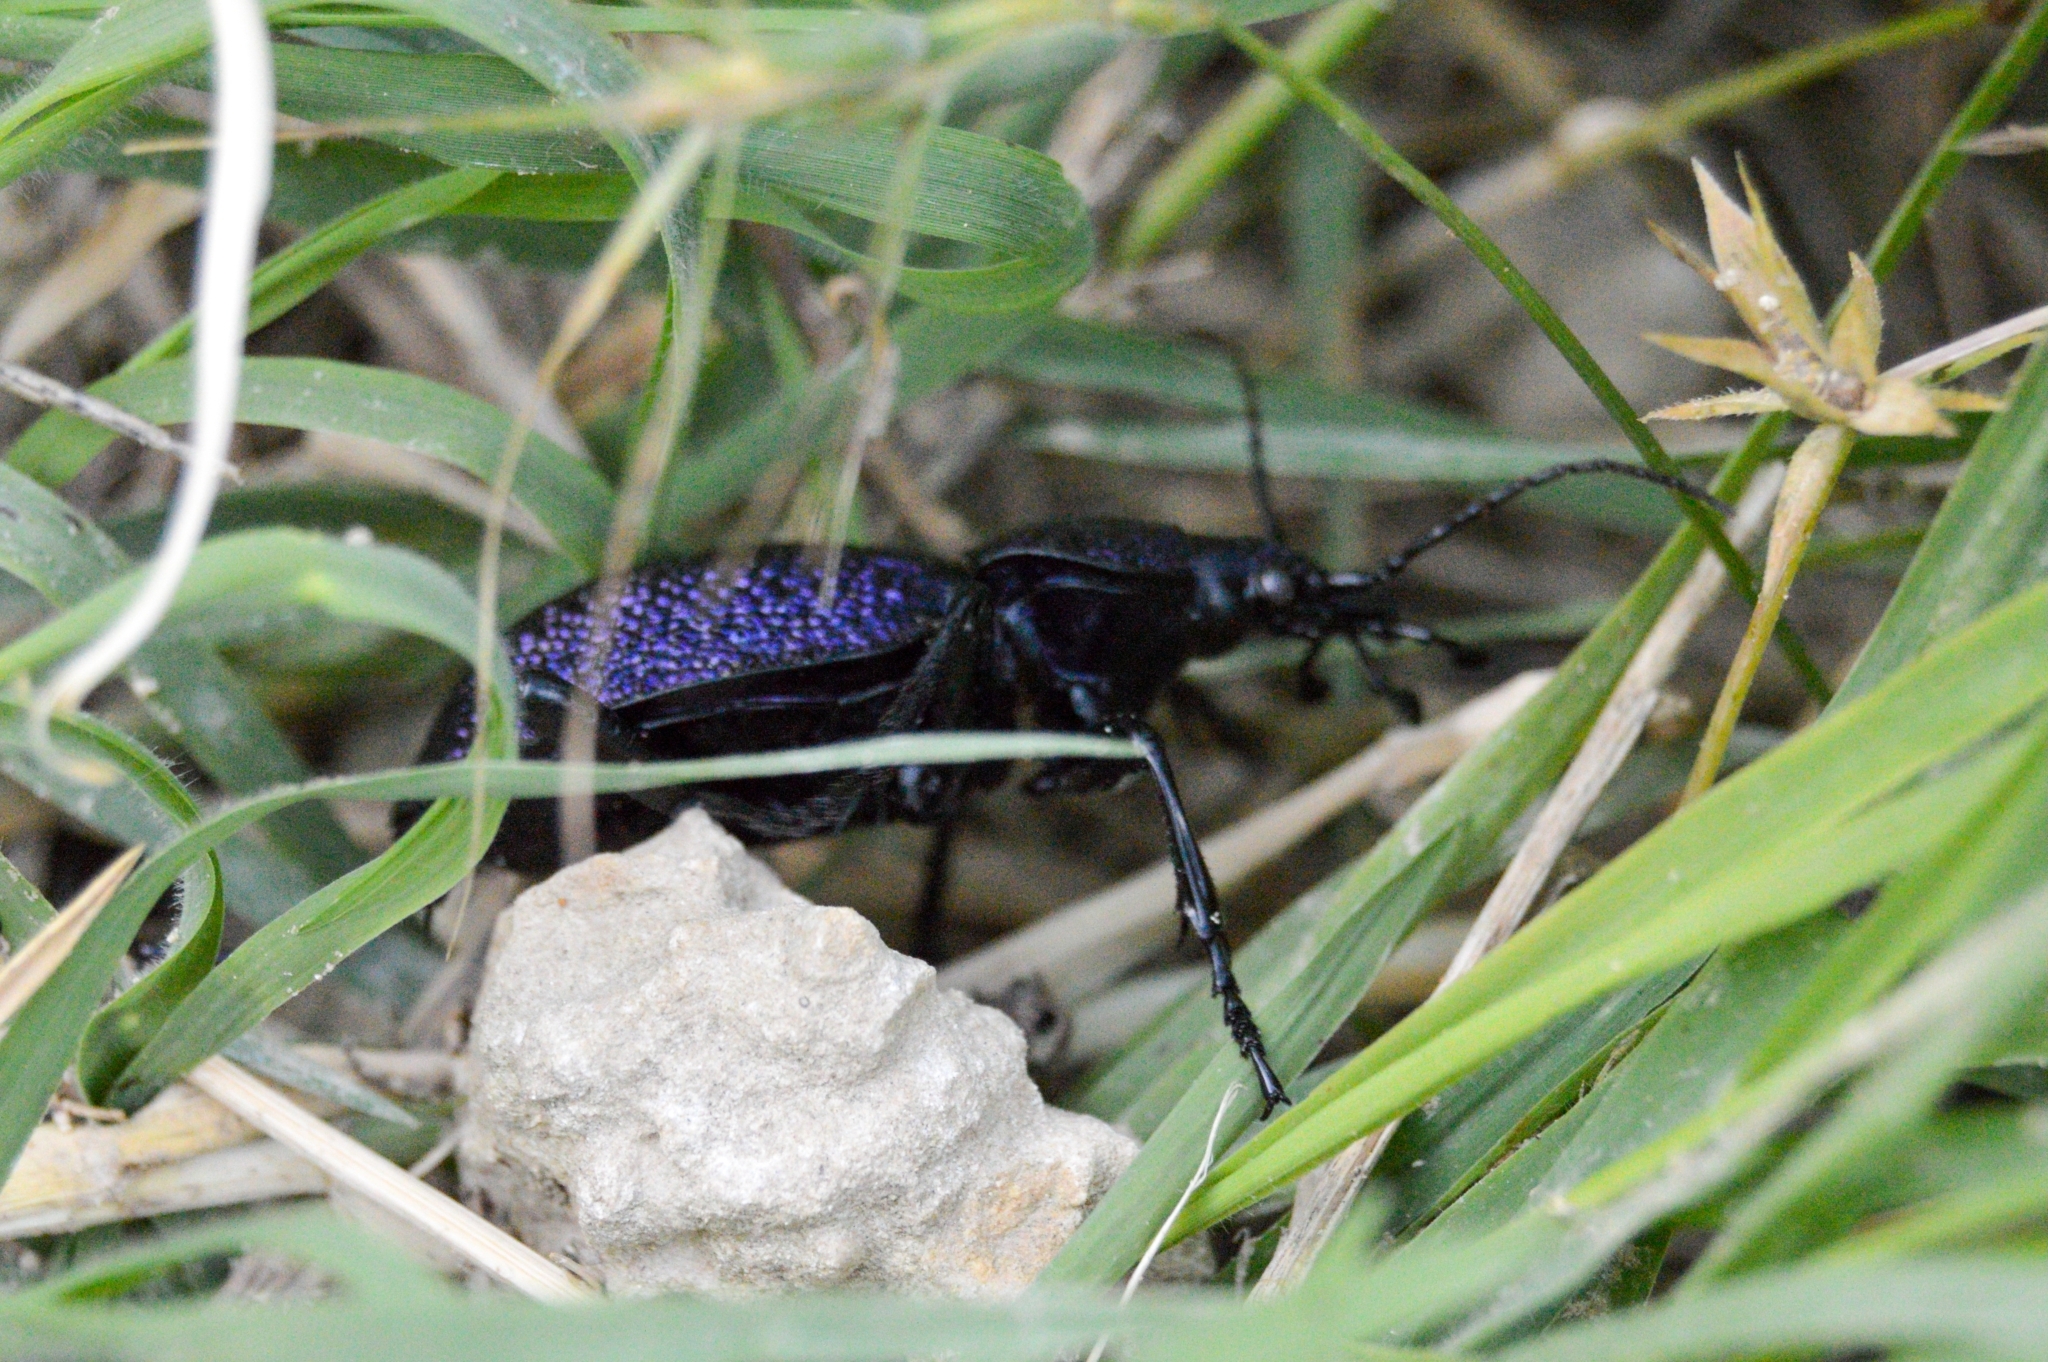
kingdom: Animalia
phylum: Arthropoda
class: Insecta
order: Coleoptera
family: Carabidae
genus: Carabus
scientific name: Carabus scabrosus
